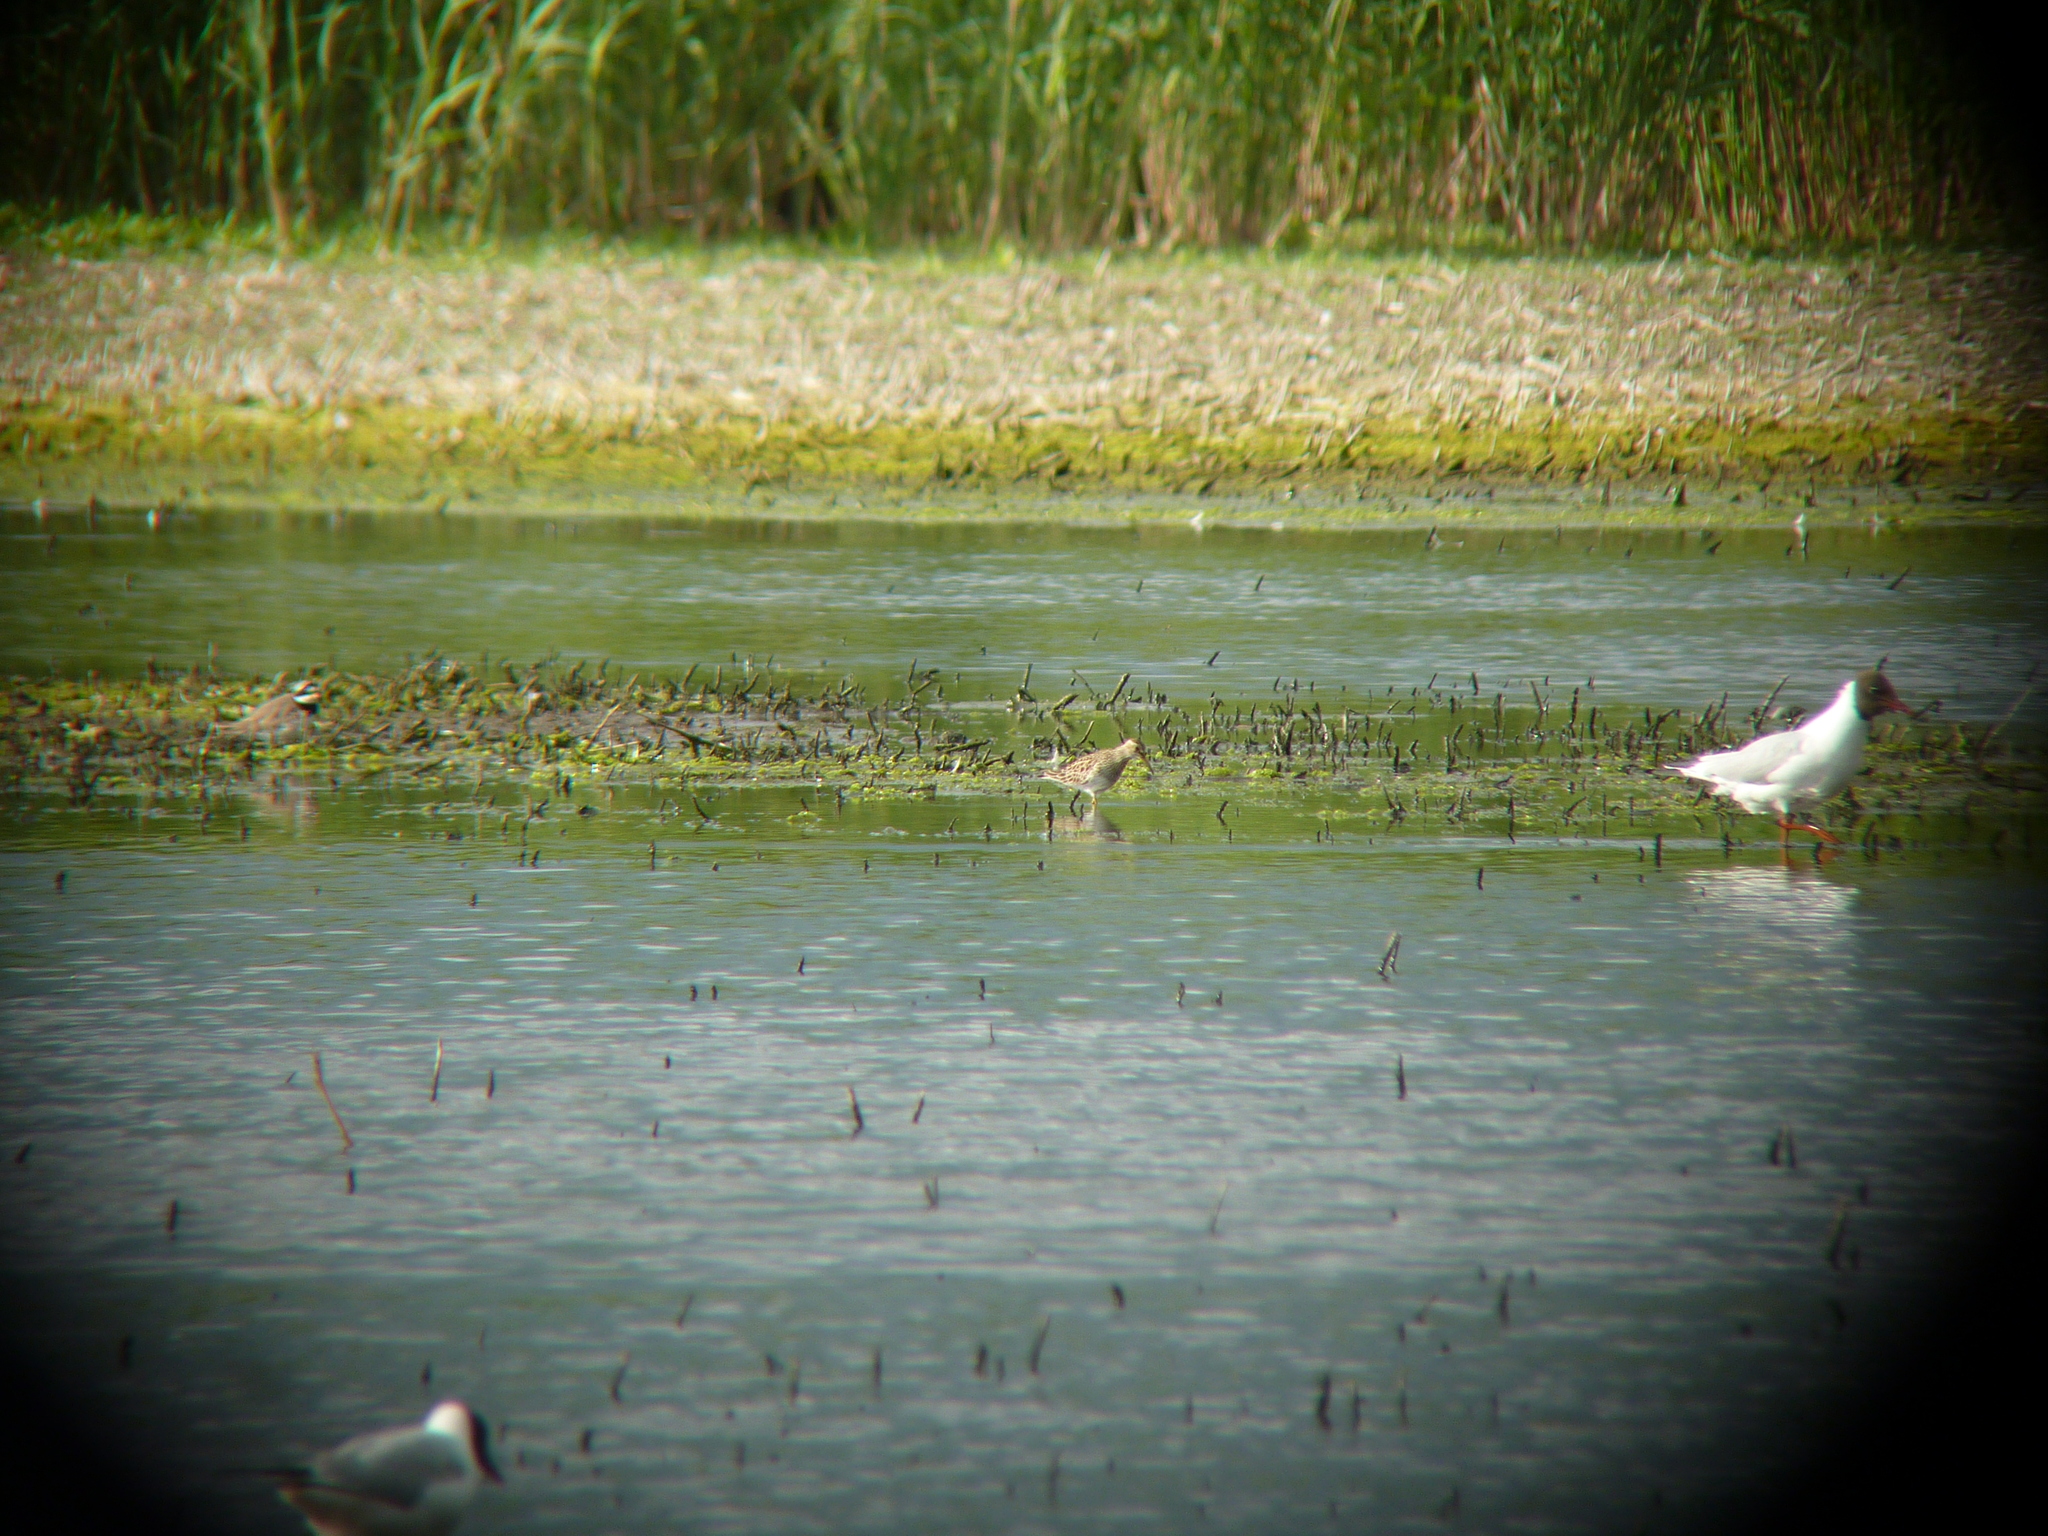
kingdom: Animalia
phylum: Chordata
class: Aves
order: Charadriiformes
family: Scolopacidae
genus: Calidris
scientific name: Calidris melanotos
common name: Pectoral sandpiper
